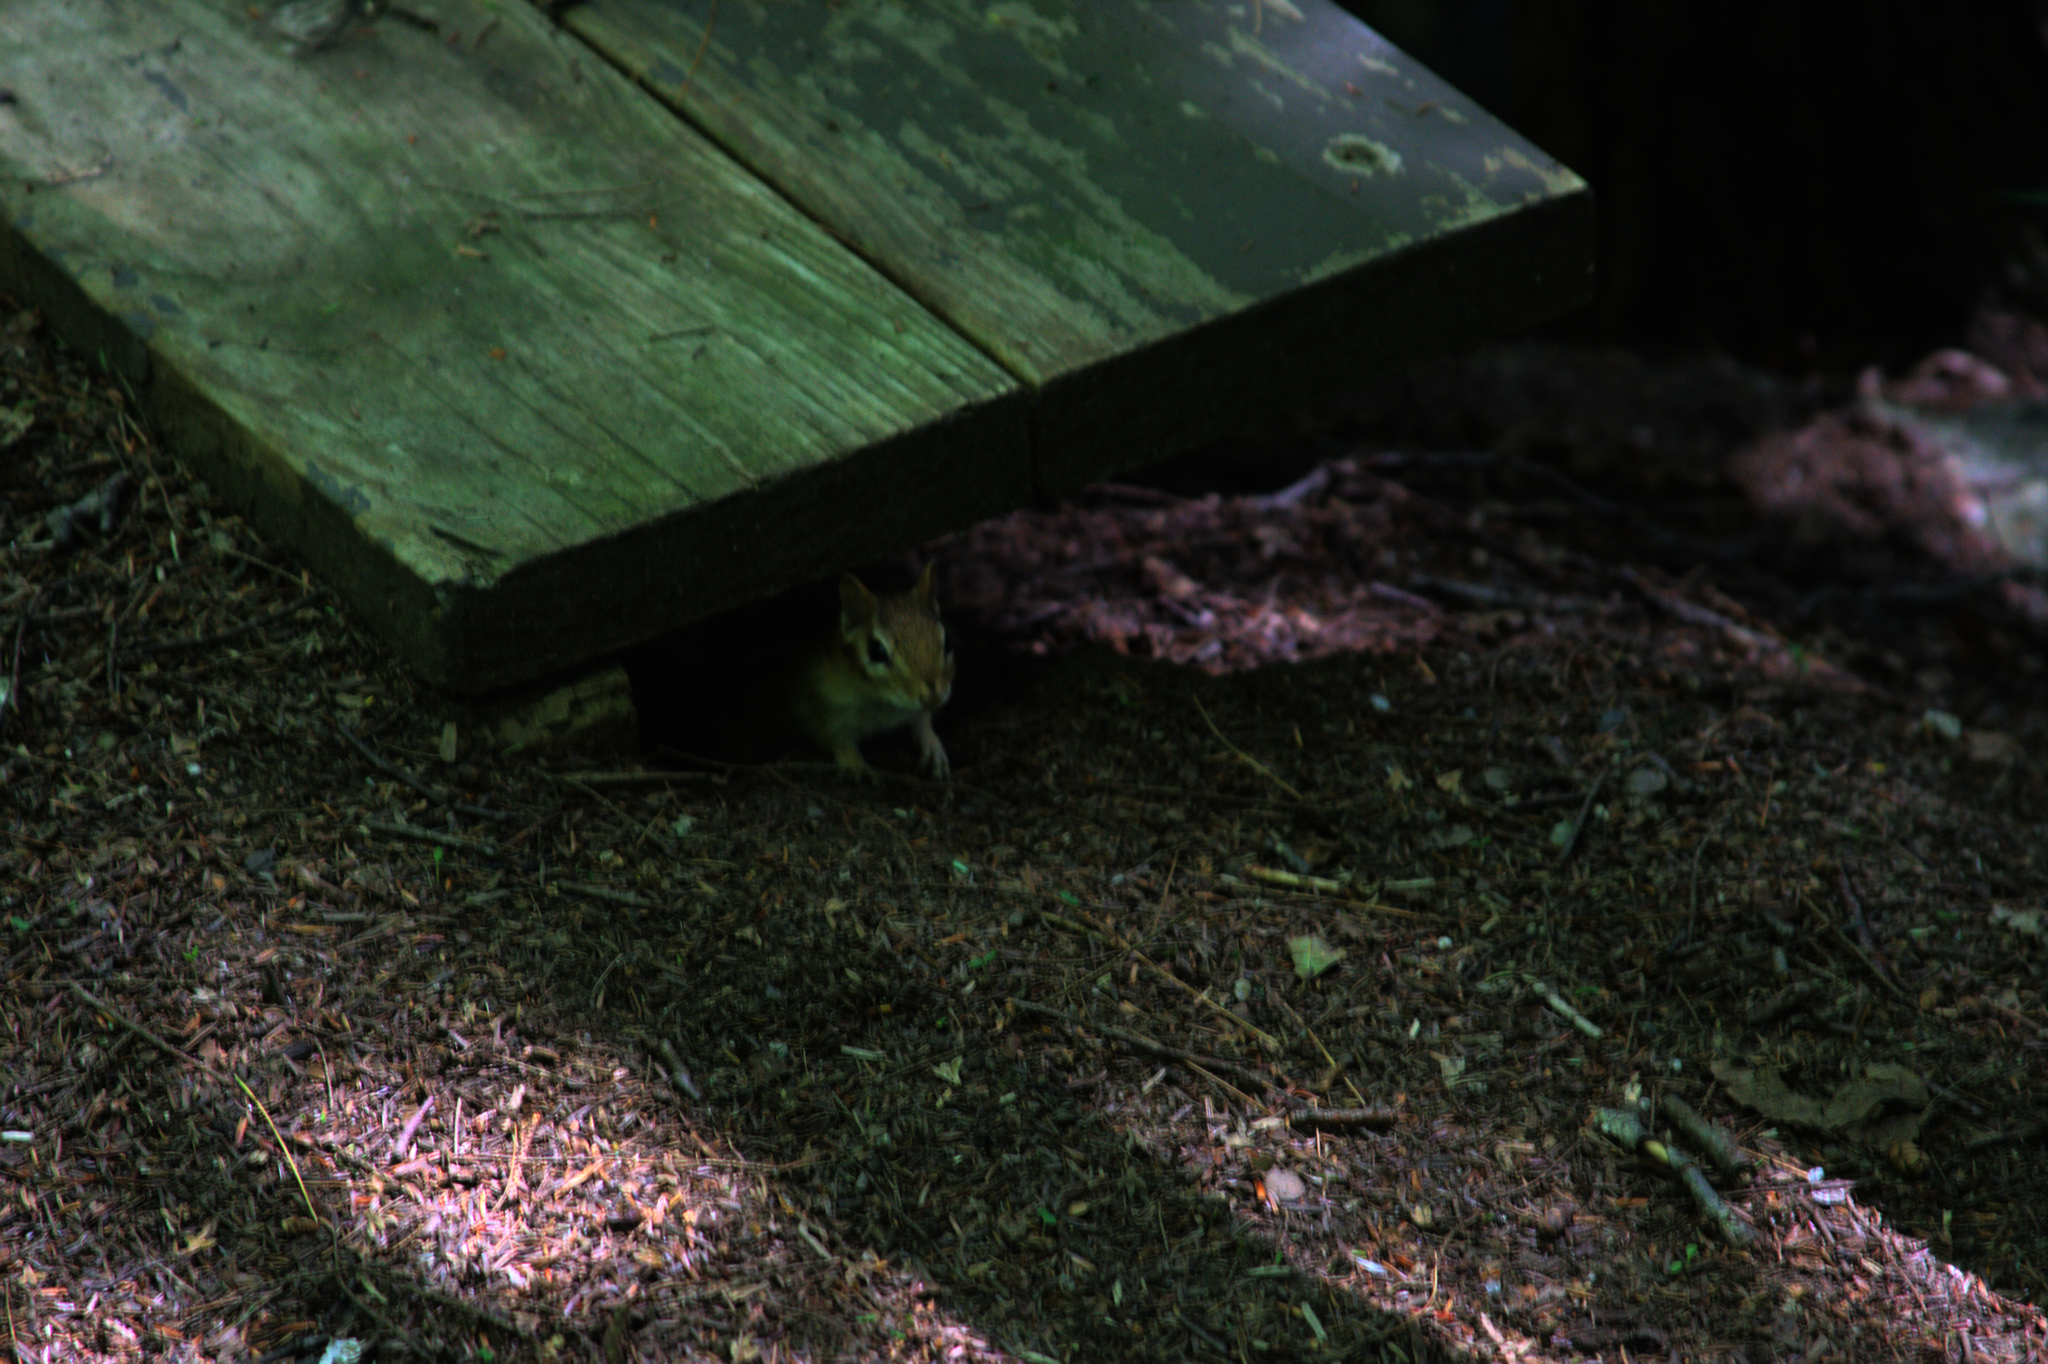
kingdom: Animalia
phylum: Chordata
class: Mammalia
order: Rodentia
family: Sciuridae
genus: Tamias
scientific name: Tamias striatus
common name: Eastern chipmunk
